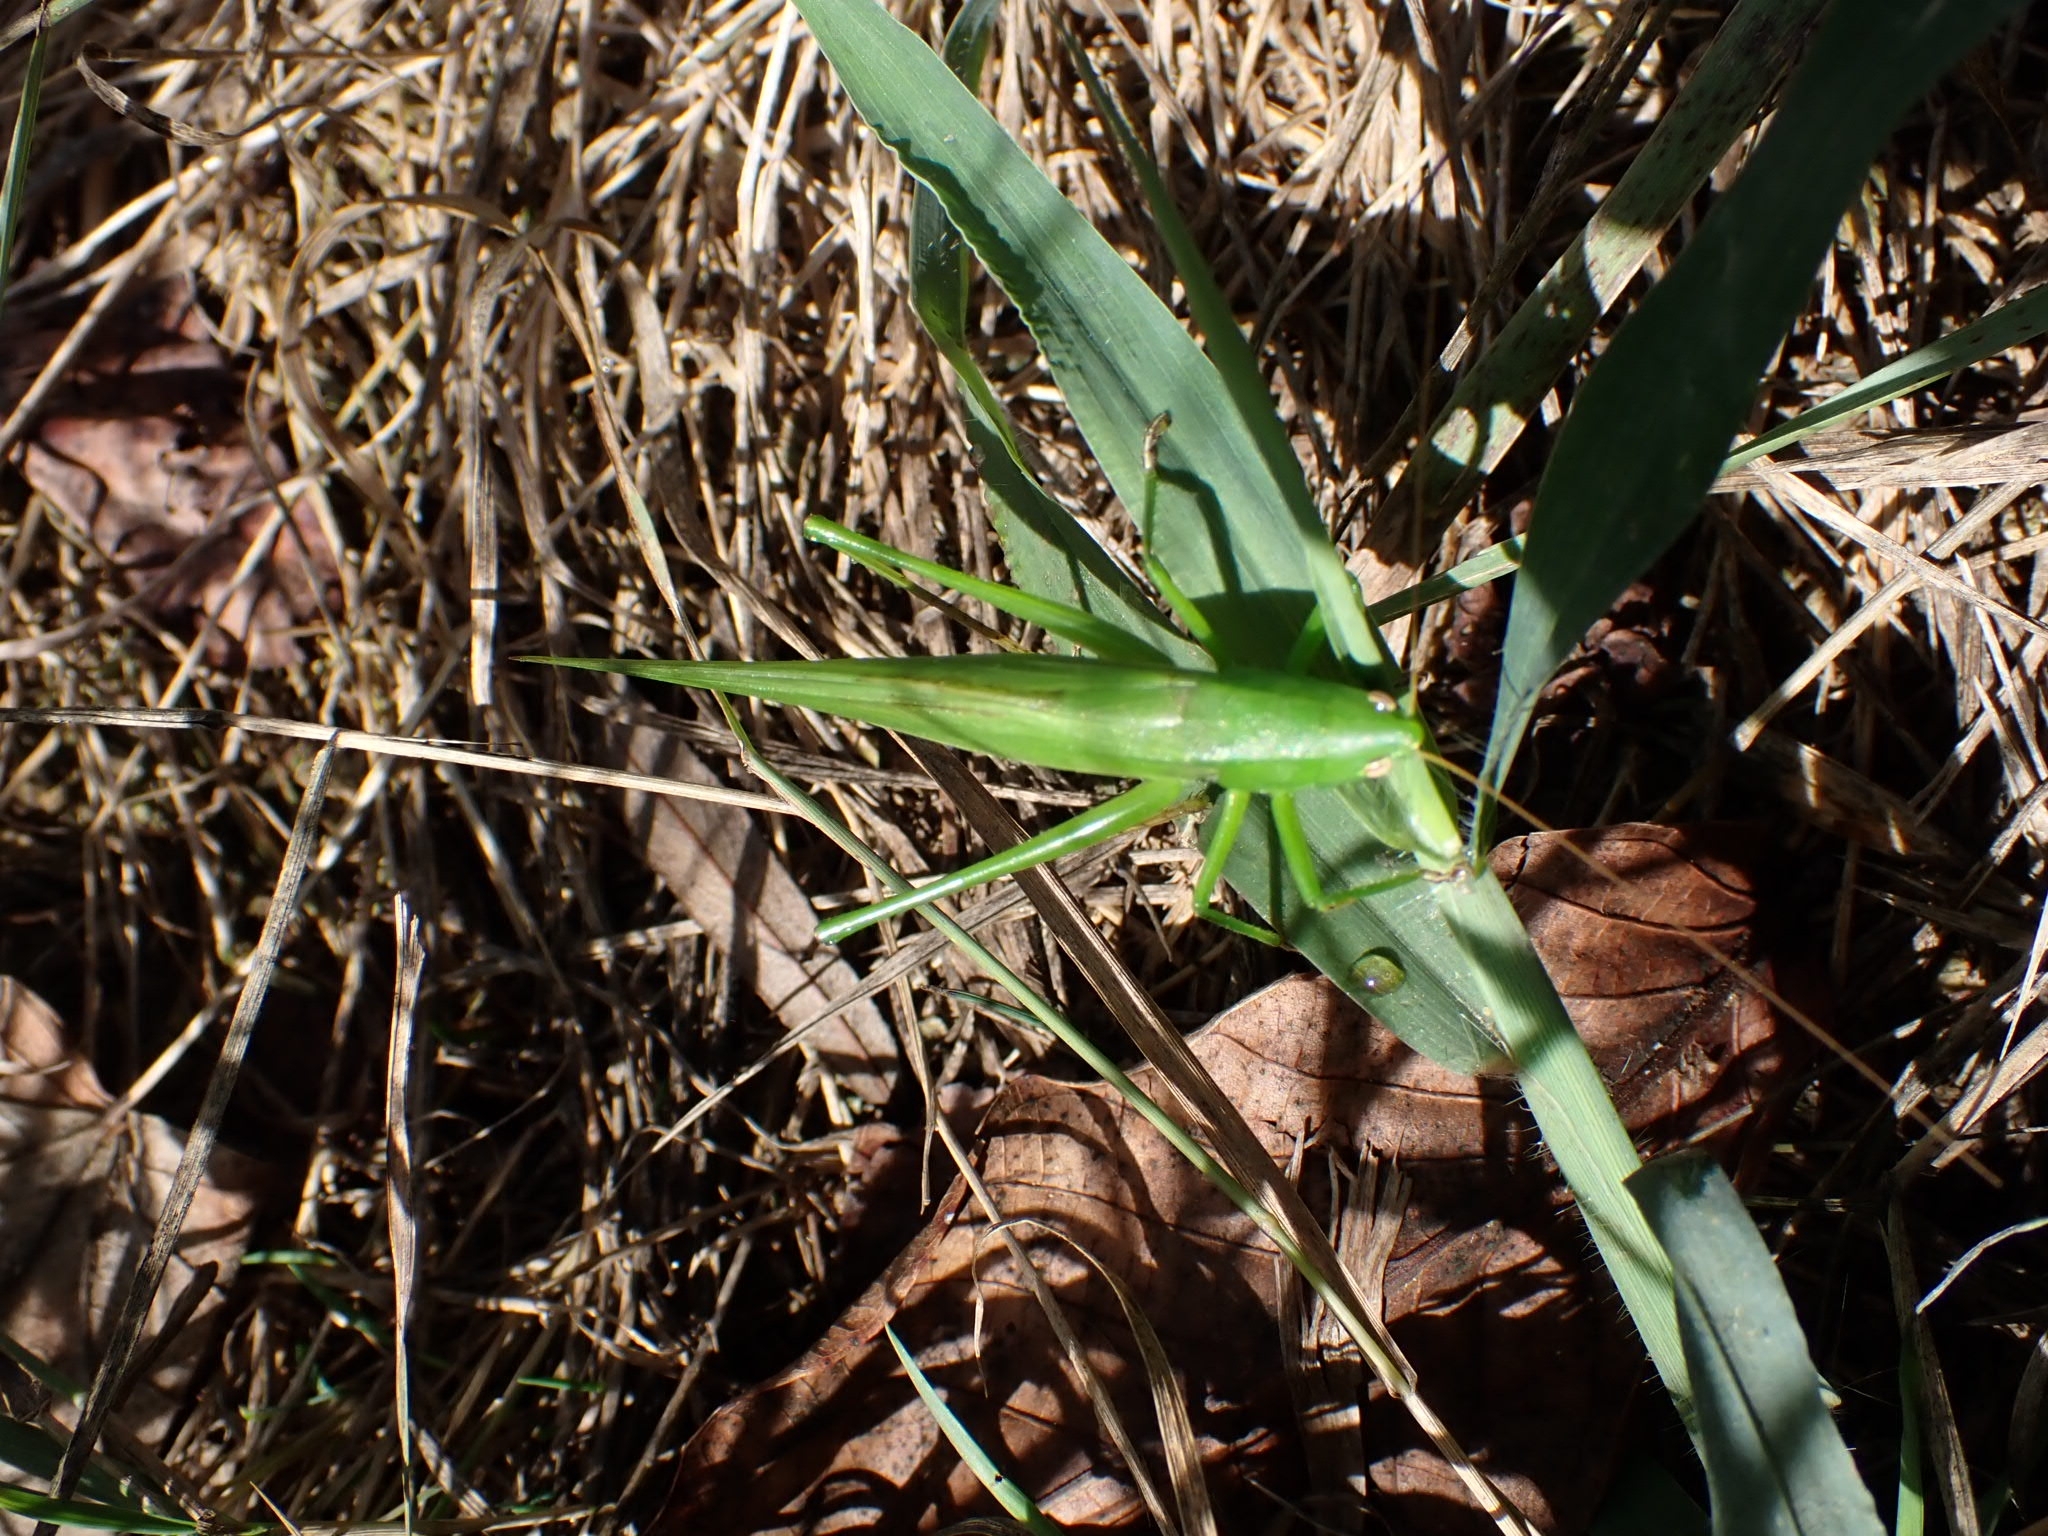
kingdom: Animalia
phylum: Arthropoda
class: Insecta
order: Orthoptera
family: Tettigoniidae
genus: Ruspolia
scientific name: Ruspolia nitidula
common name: Large conehead
